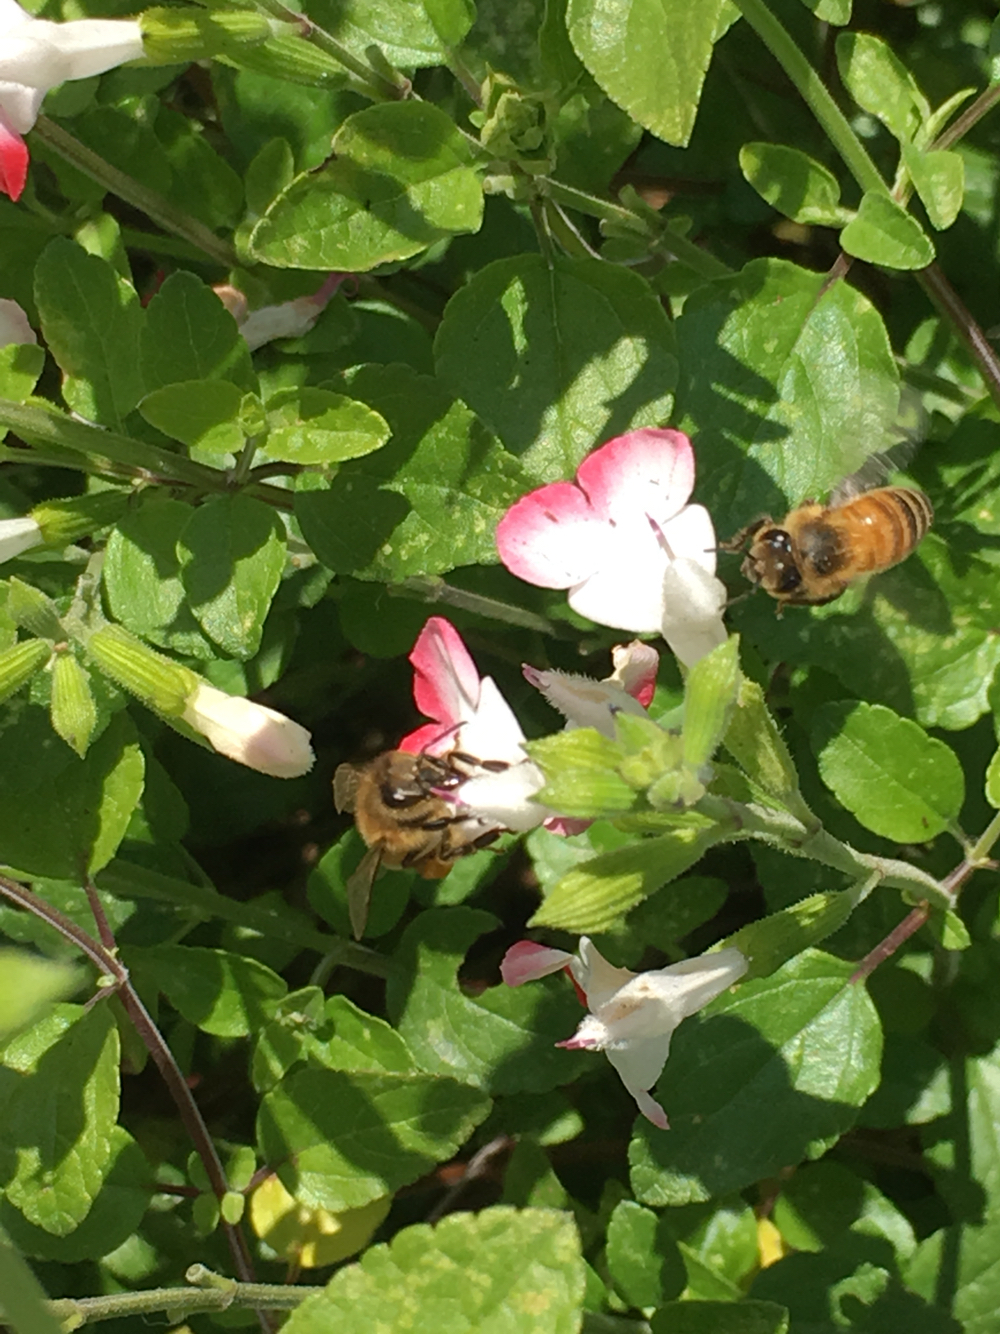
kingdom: Animalia
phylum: Arthropoda
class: Insecta
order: Hymenoptera
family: Apidae
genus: Apis
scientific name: Apis mellifera
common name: Honey bee
